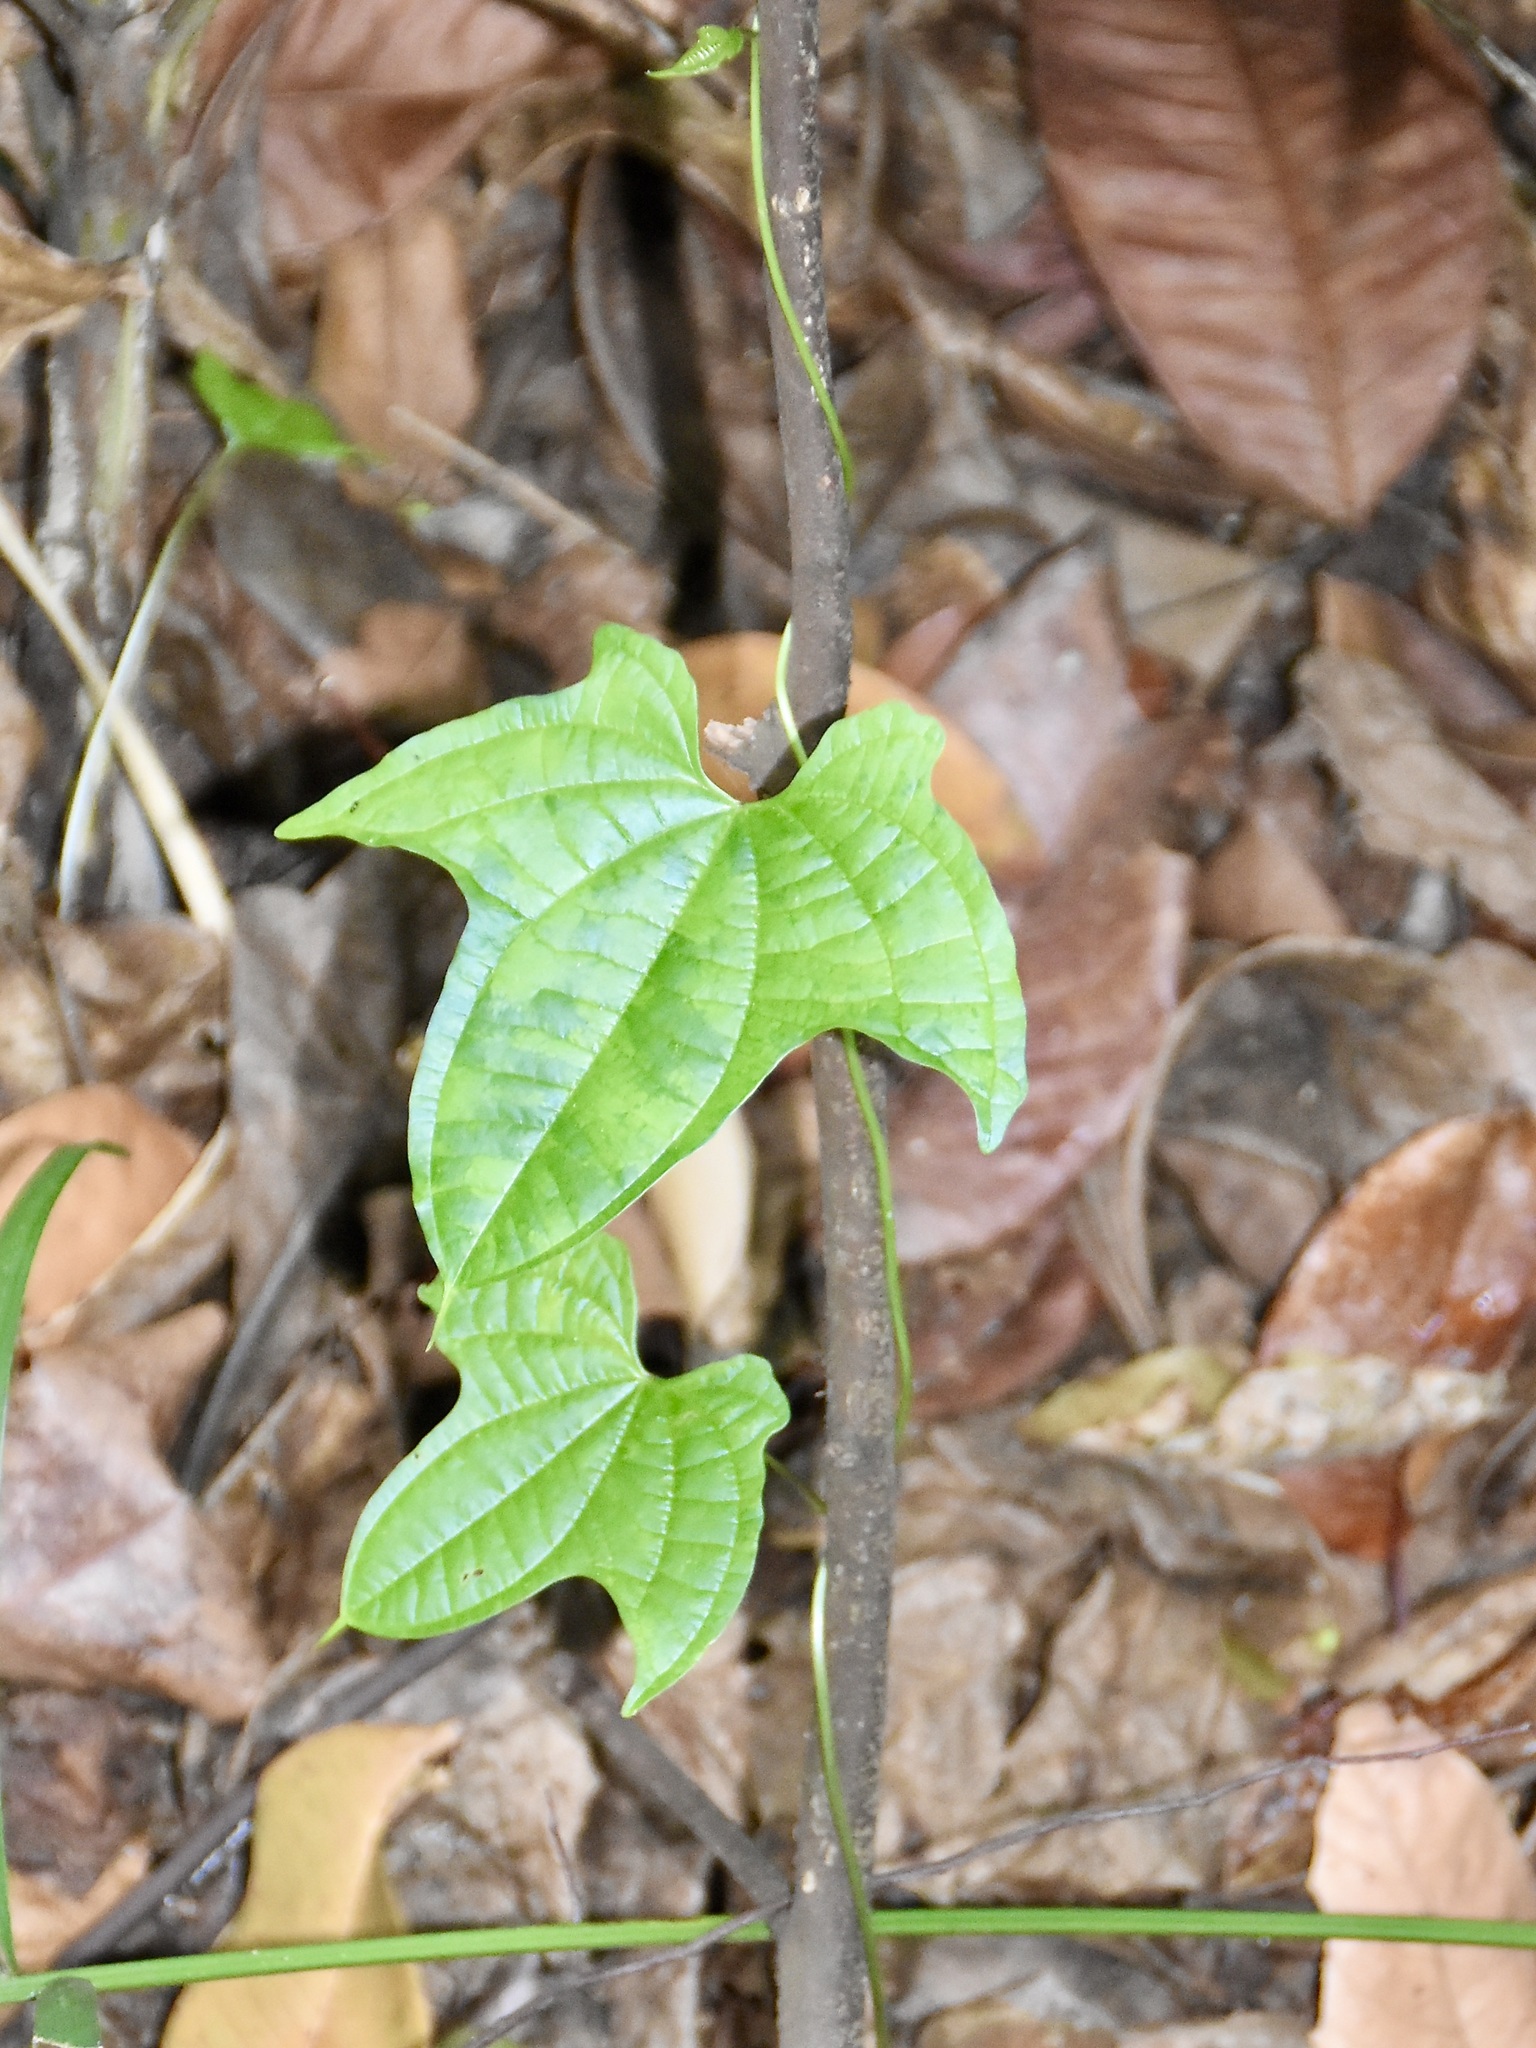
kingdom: Plantae
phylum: Tracheophyta
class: Liliopsida
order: Dioscoreales
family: Dioscoreaceae
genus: Dioscorea
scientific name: Dioscorea sansibarensis
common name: Zanzibar yam
